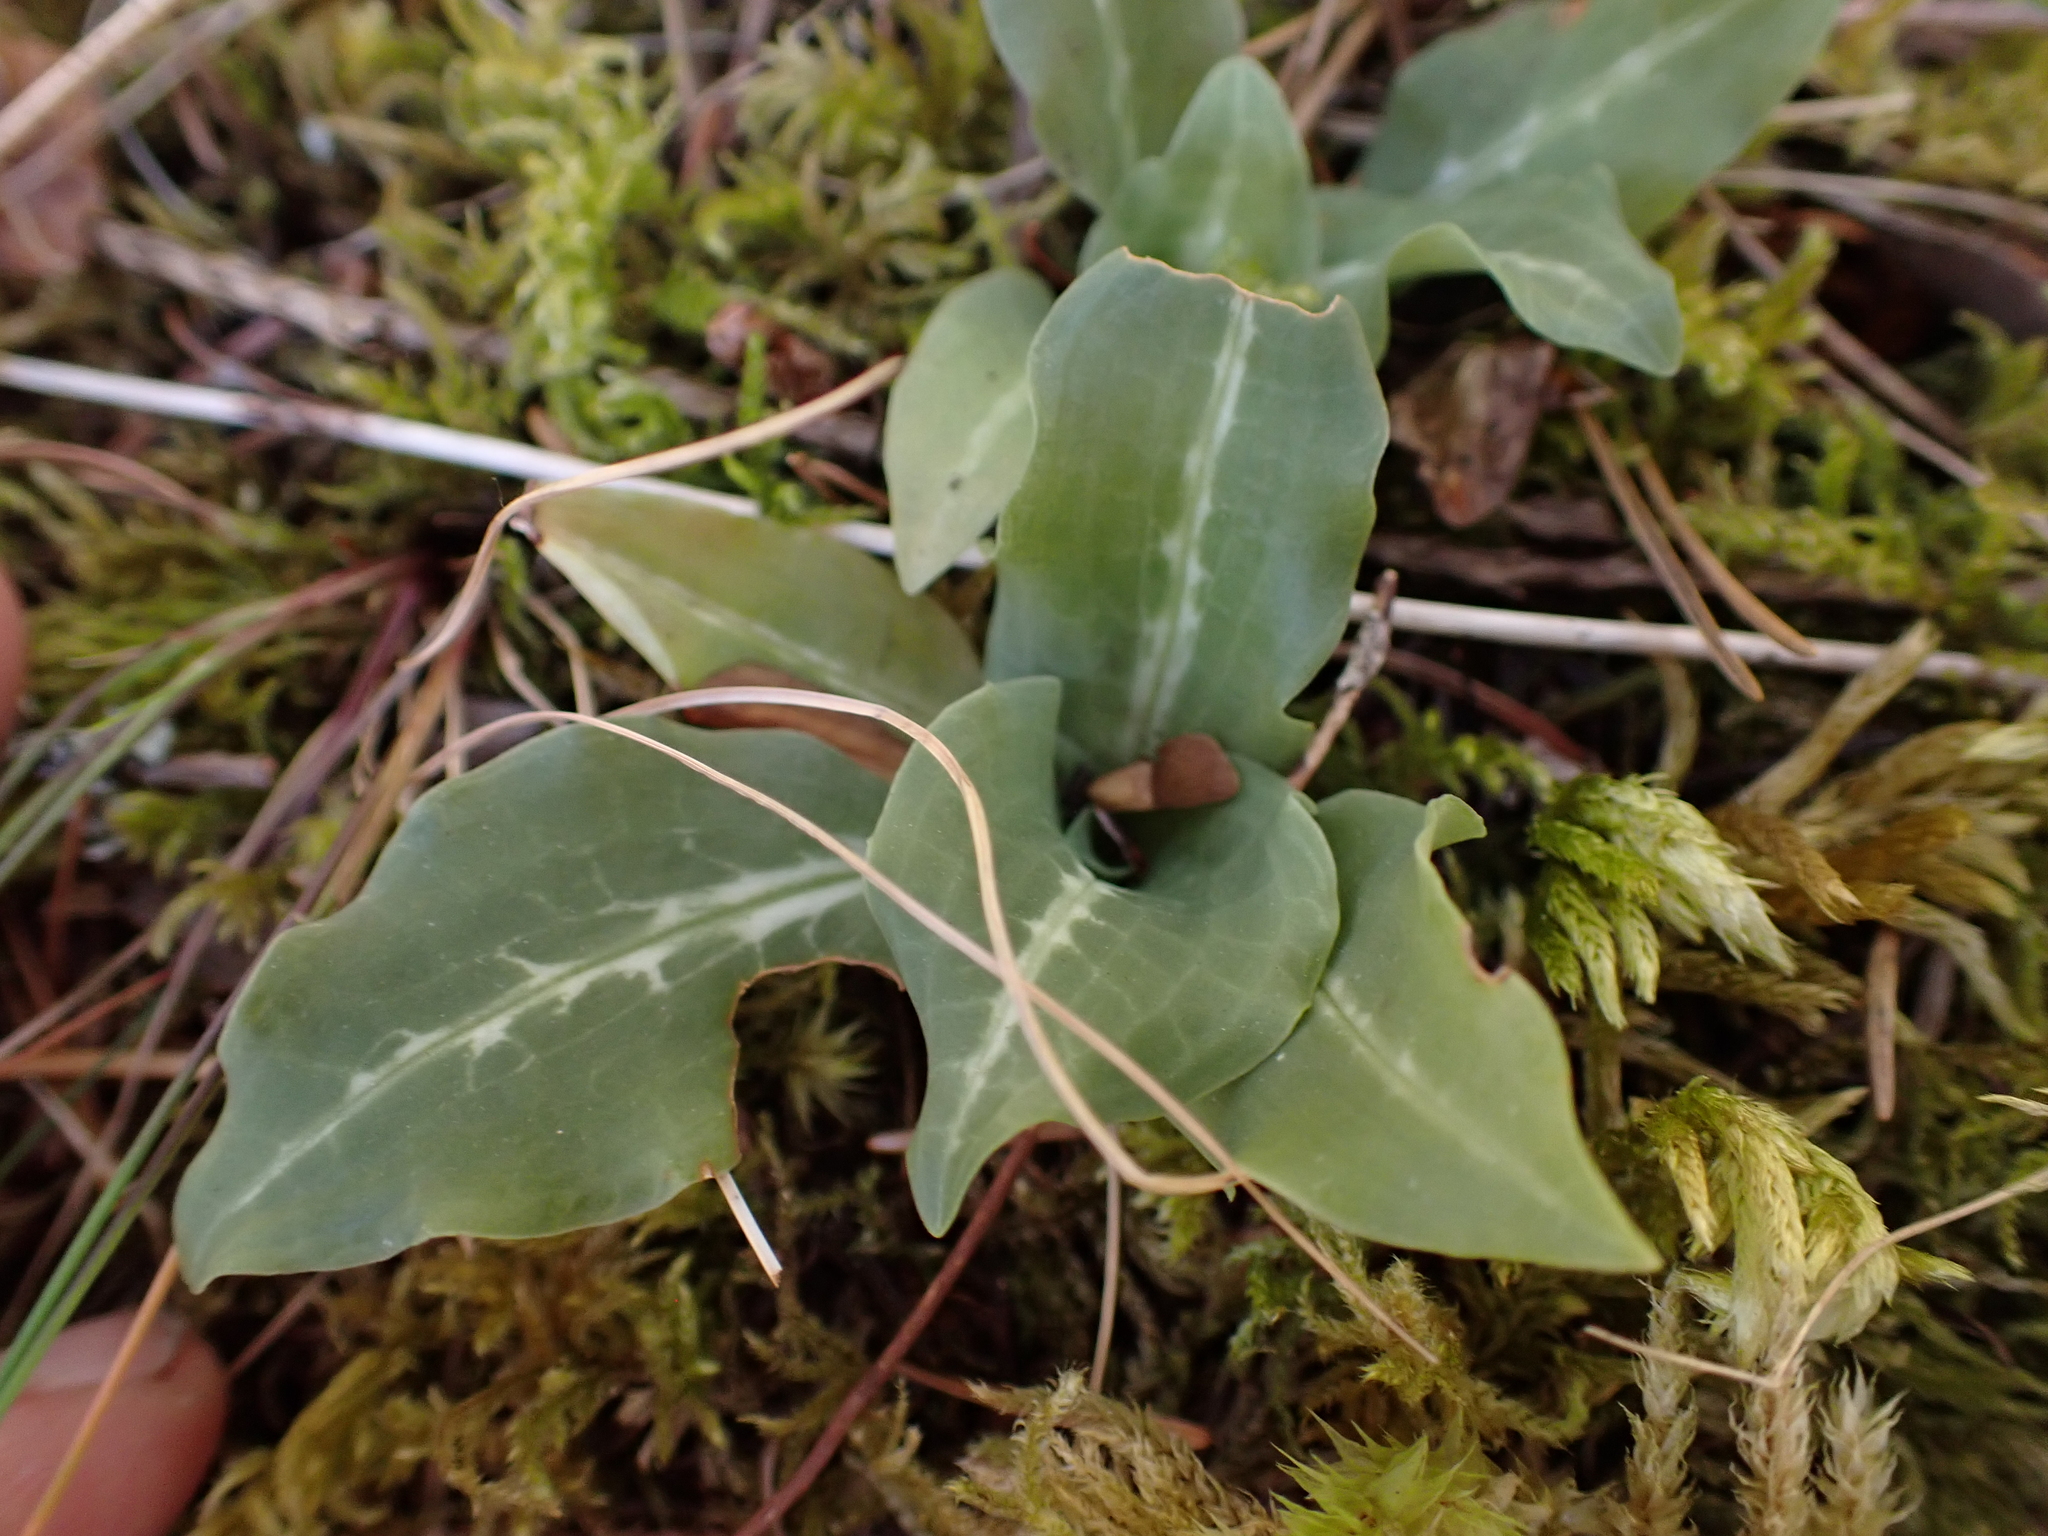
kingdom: Plantae
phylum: Tracheophyta
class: Liliopsida
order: Asparagales
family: Orchidaceae
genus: Goodyera
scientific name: Goodyera oblongifolia
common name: Giant rattlesnake-plantain
